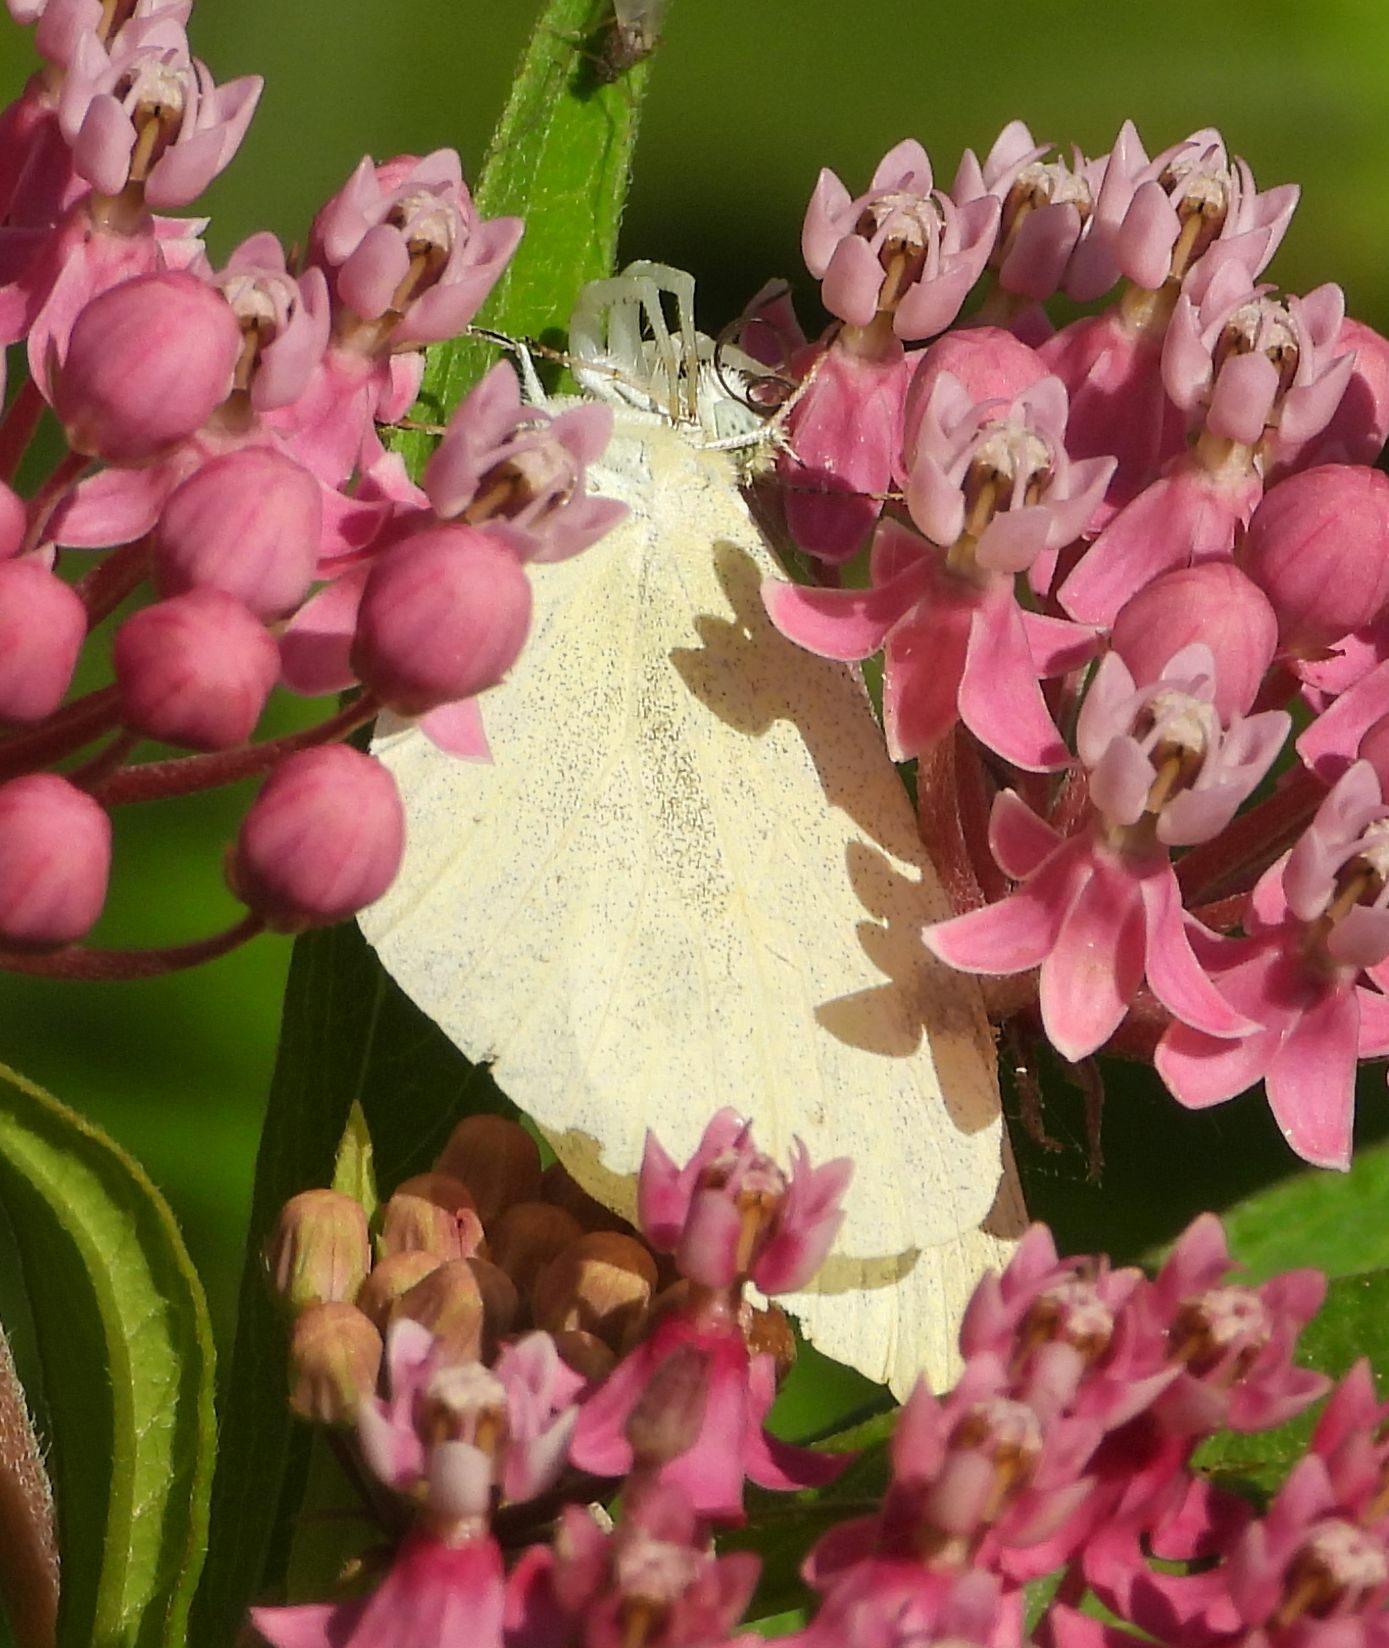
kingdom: Animalia
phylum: Arthropoda
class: Insecta
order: Lepidoptera
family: Pieridae
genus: Pieris
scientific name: Pieris rapae
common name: Small white
